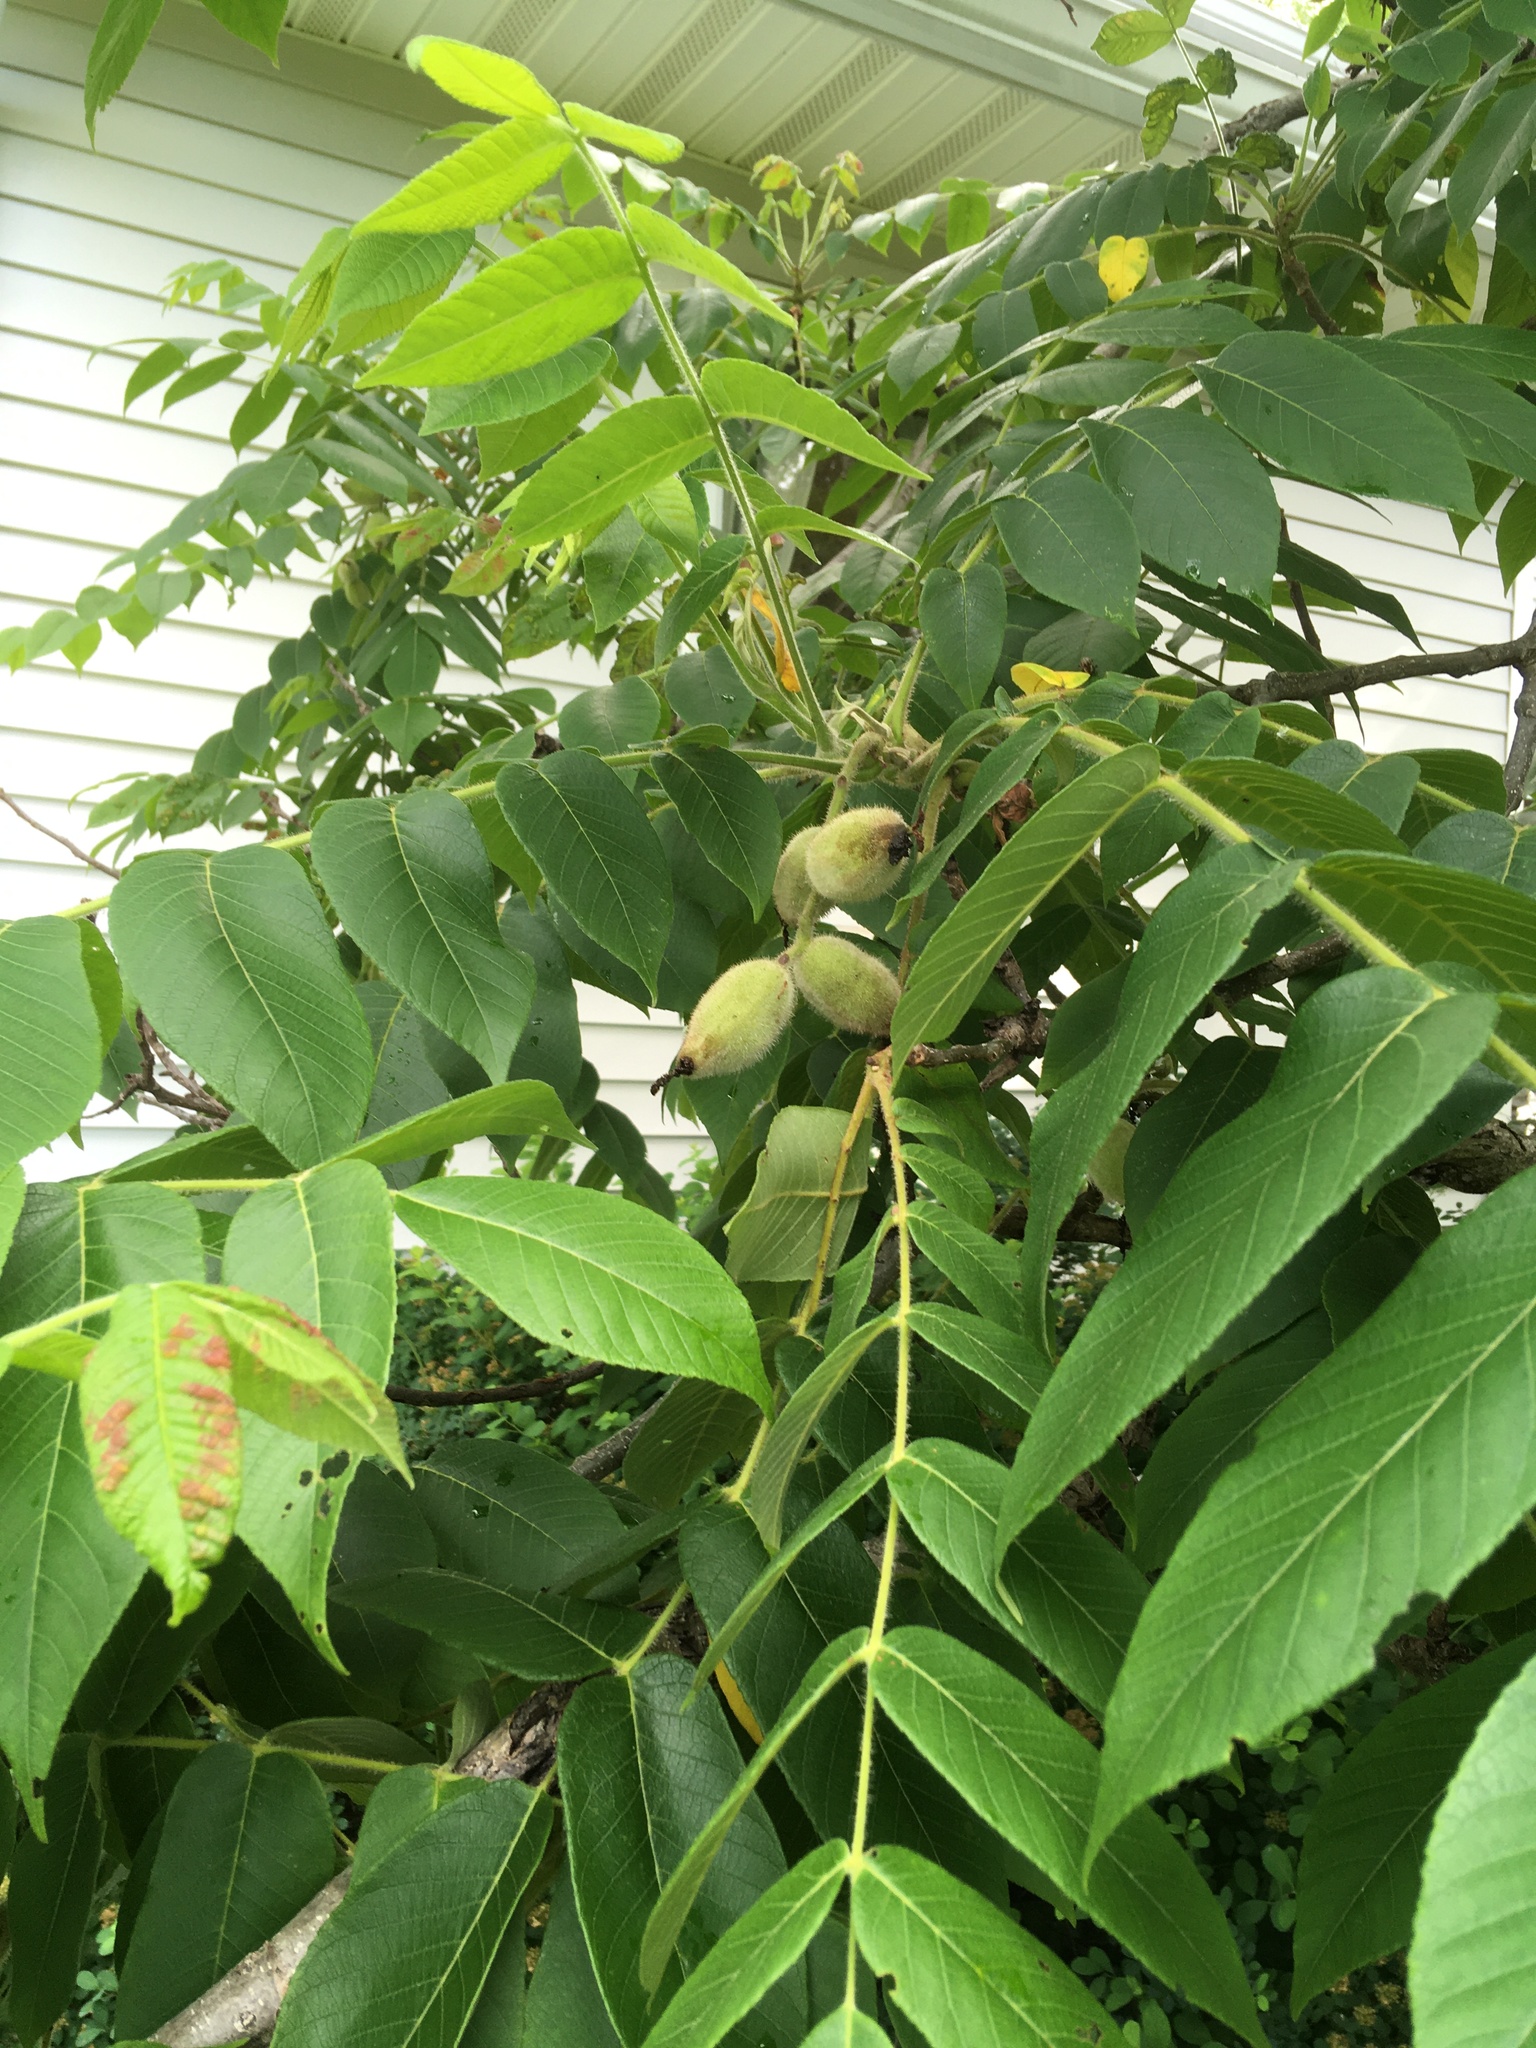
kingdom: Plantae
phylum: Tracheophyta
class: Magnoliopsida
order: Fagales
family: Juglandaceae
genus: Juglans
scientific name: Juglans cinerea
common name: Butternut
